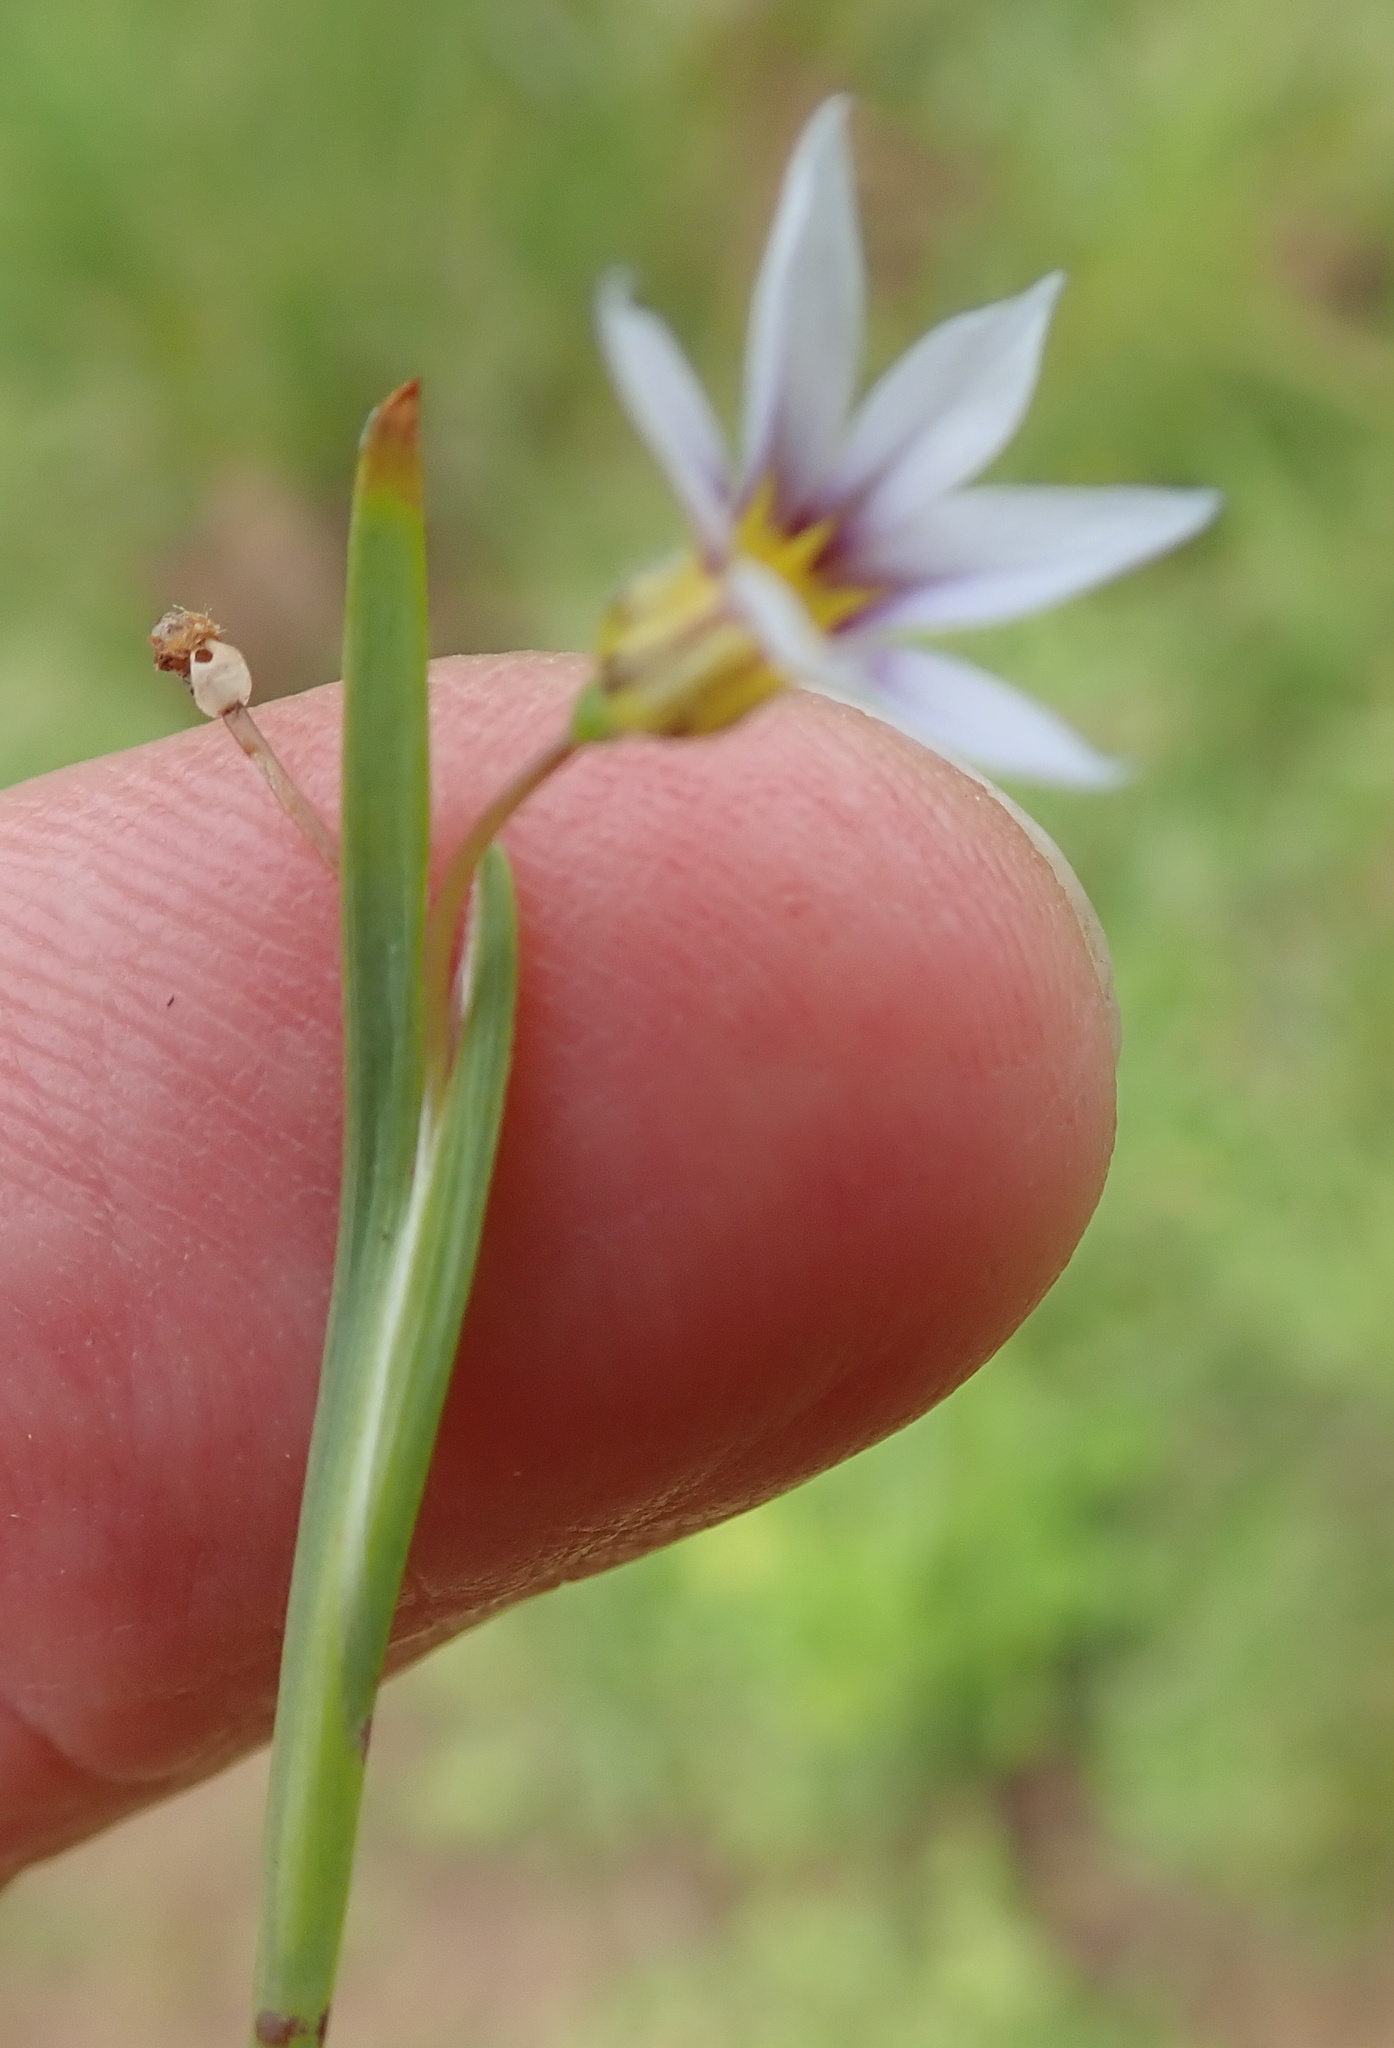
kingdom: Plantae
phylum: Tracheophyta
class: Liliopsida
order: Asparagales
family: Iridaceae
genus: Sisyrinchium
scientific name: Sisyrinchium micranthum
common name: Bermuda pigroot
